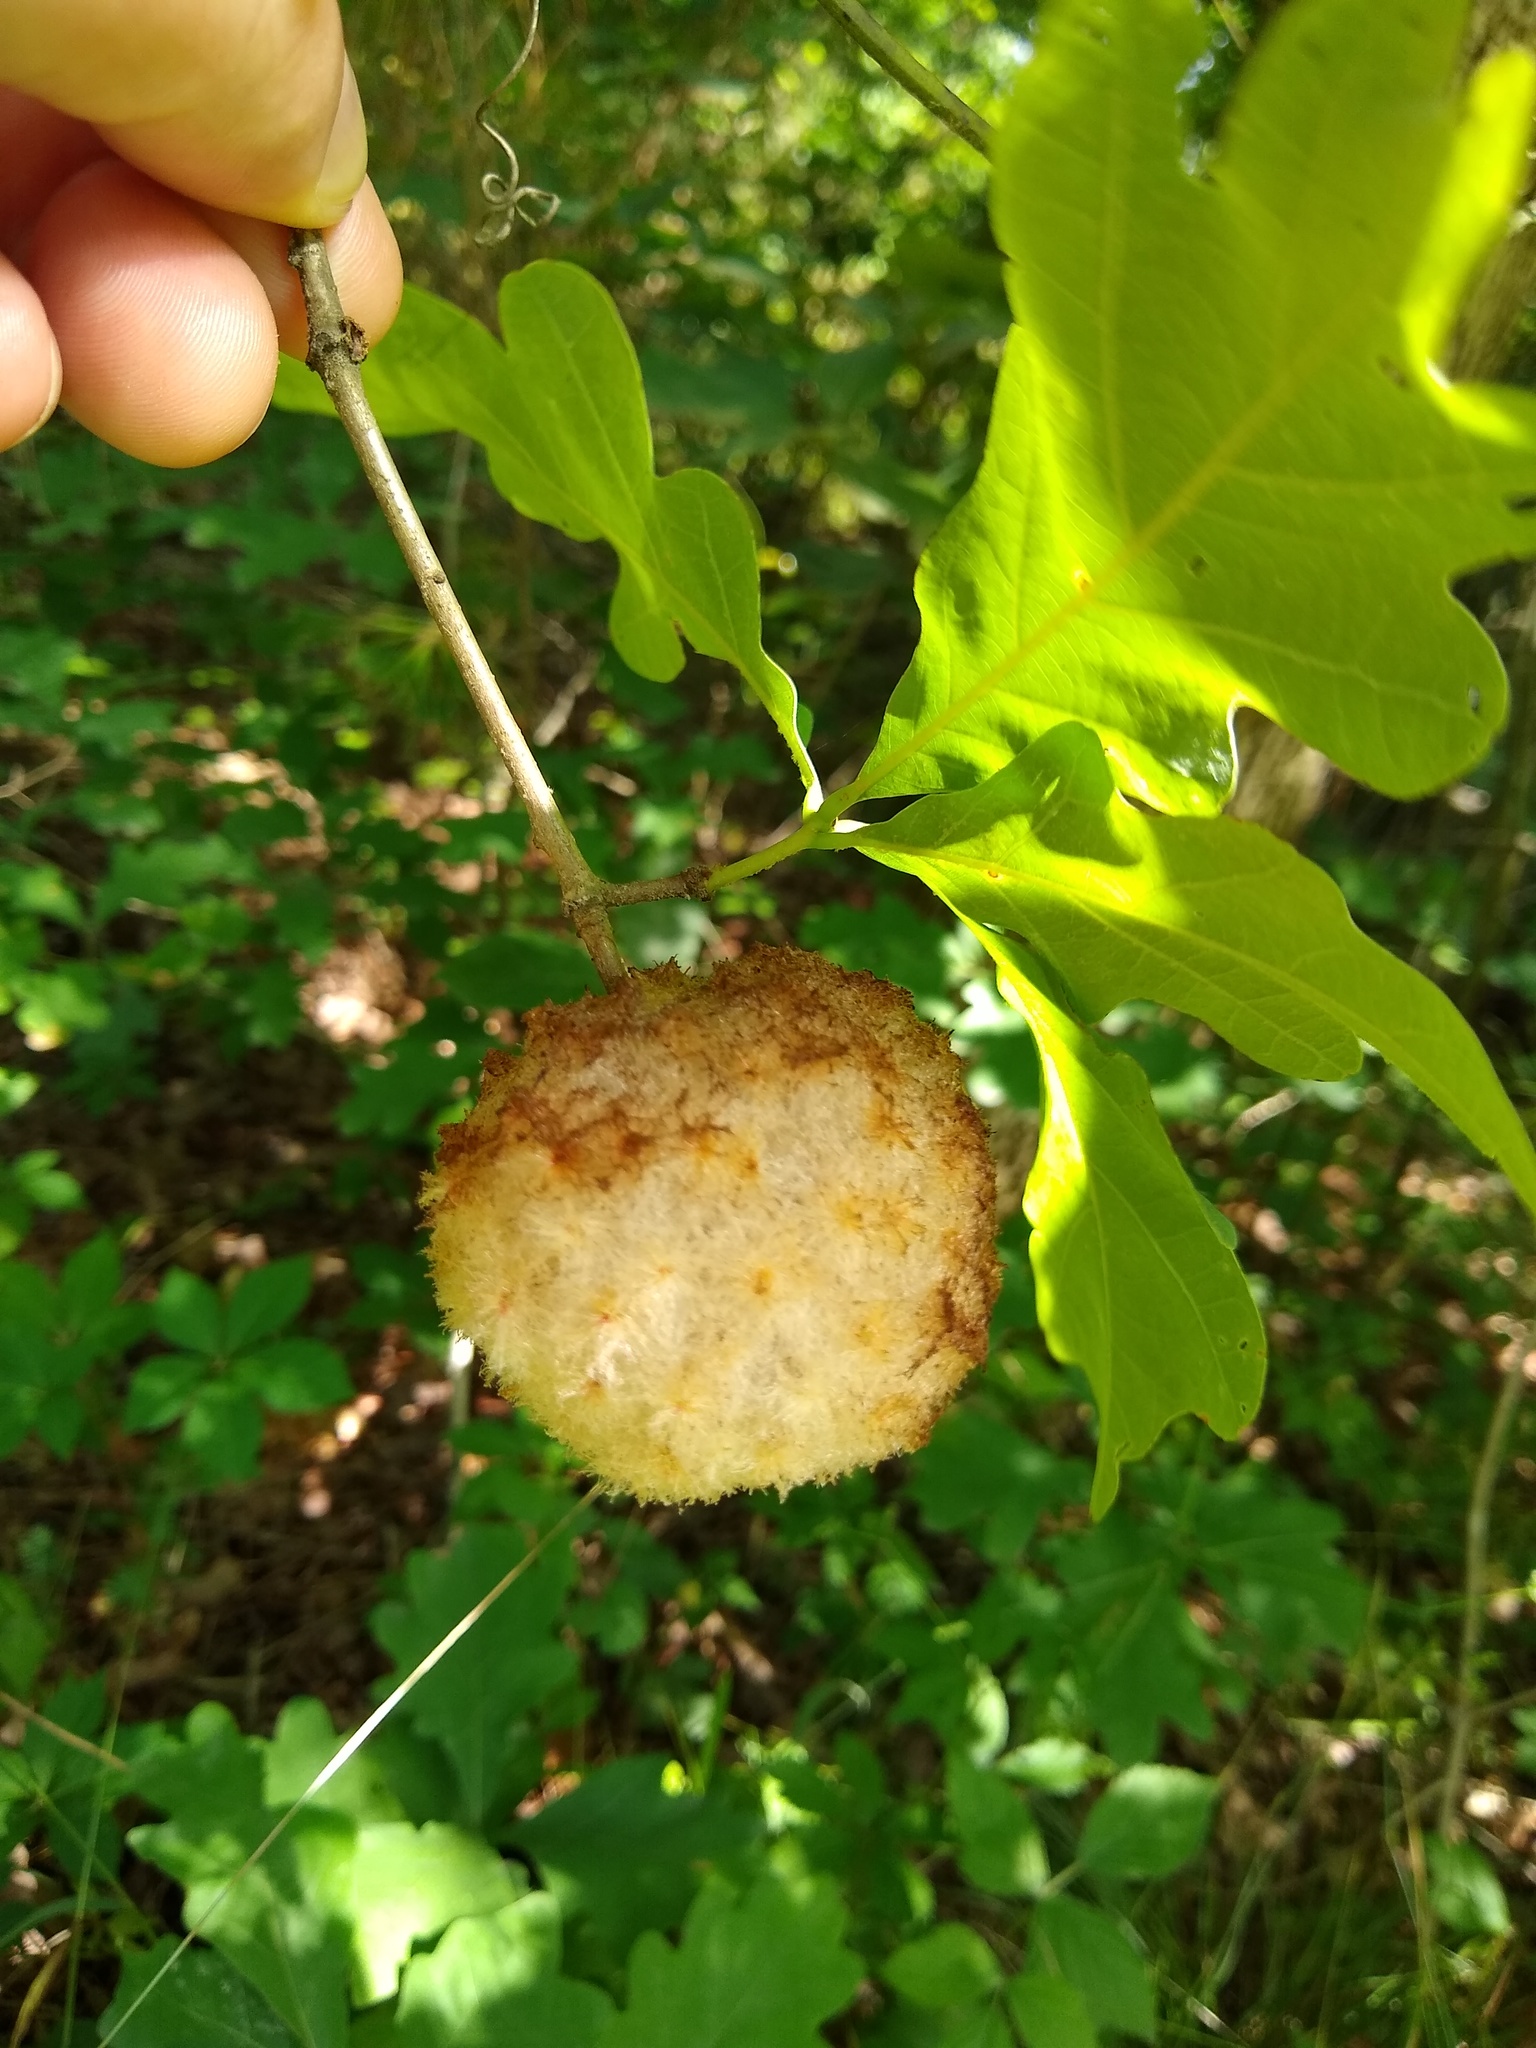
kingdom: Animalia
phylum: Arthropoda
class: Insecta
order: Hymenoptera
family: Cynipidae
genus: Callirhytis
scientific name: Callirhytis
